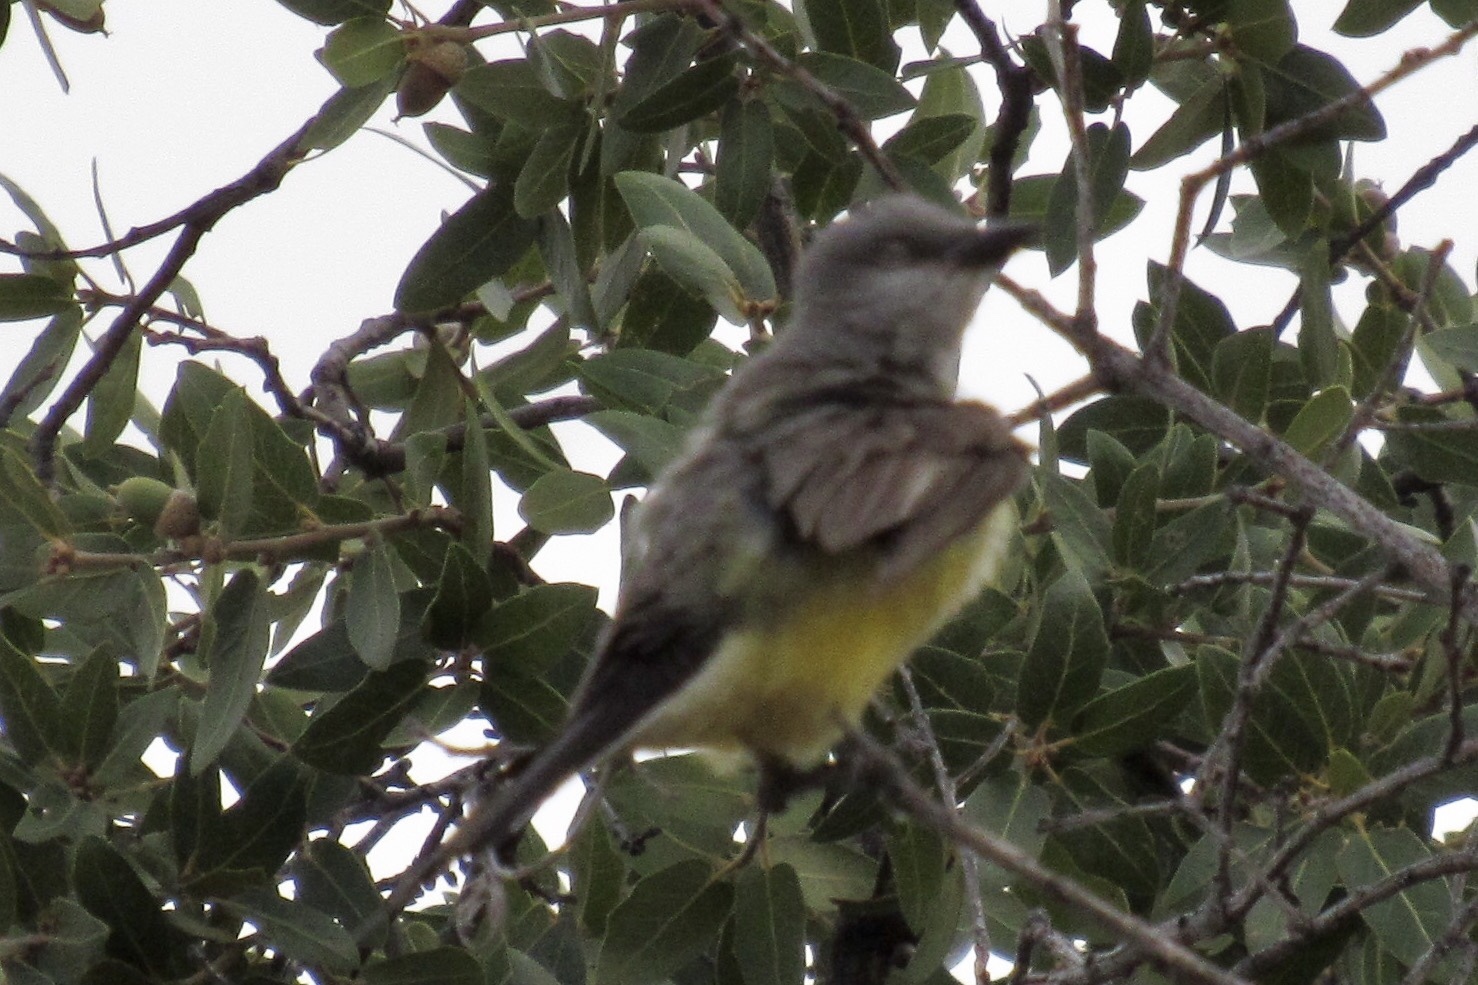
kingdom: Animalia
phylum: Chordata
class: Aves
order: Passeriformes
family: Tyrannidae
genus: Tyrannus
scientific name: Tyrannus verticalis
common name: Western kingbird
